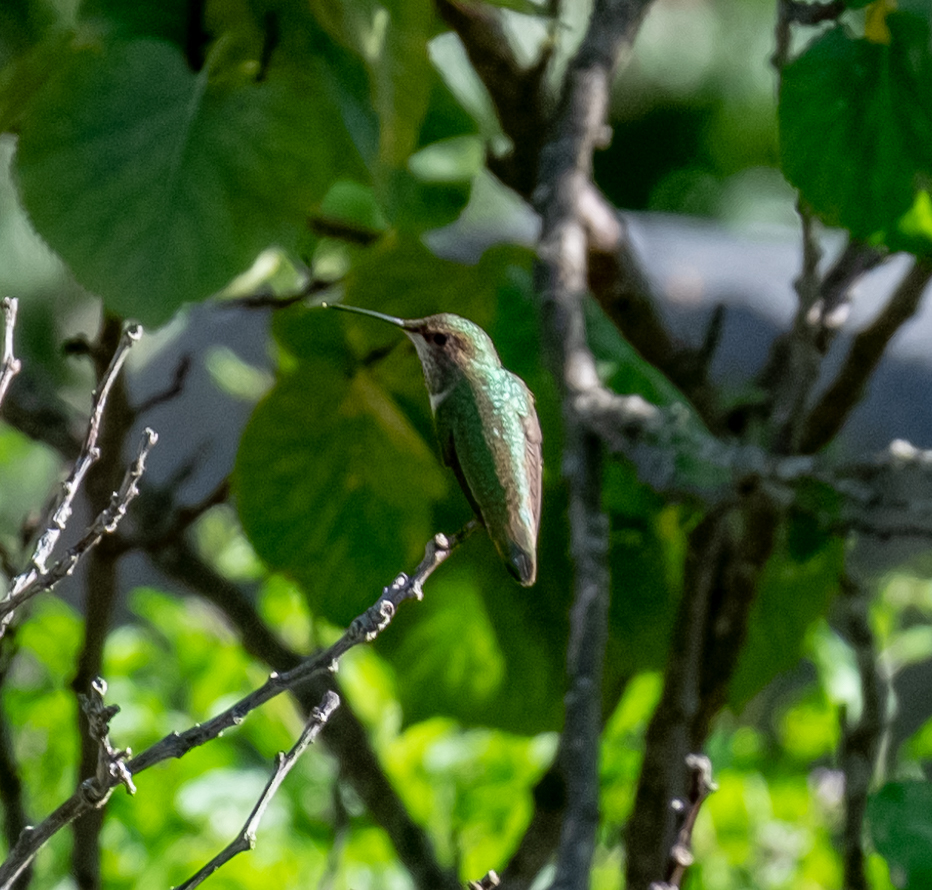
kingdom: Animalia
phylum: Chordata
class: Aves
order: Apodiformes
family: Trochilidae
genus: Selasphorus
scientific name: Selasphorus sasin
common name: Allen's hummingbird
